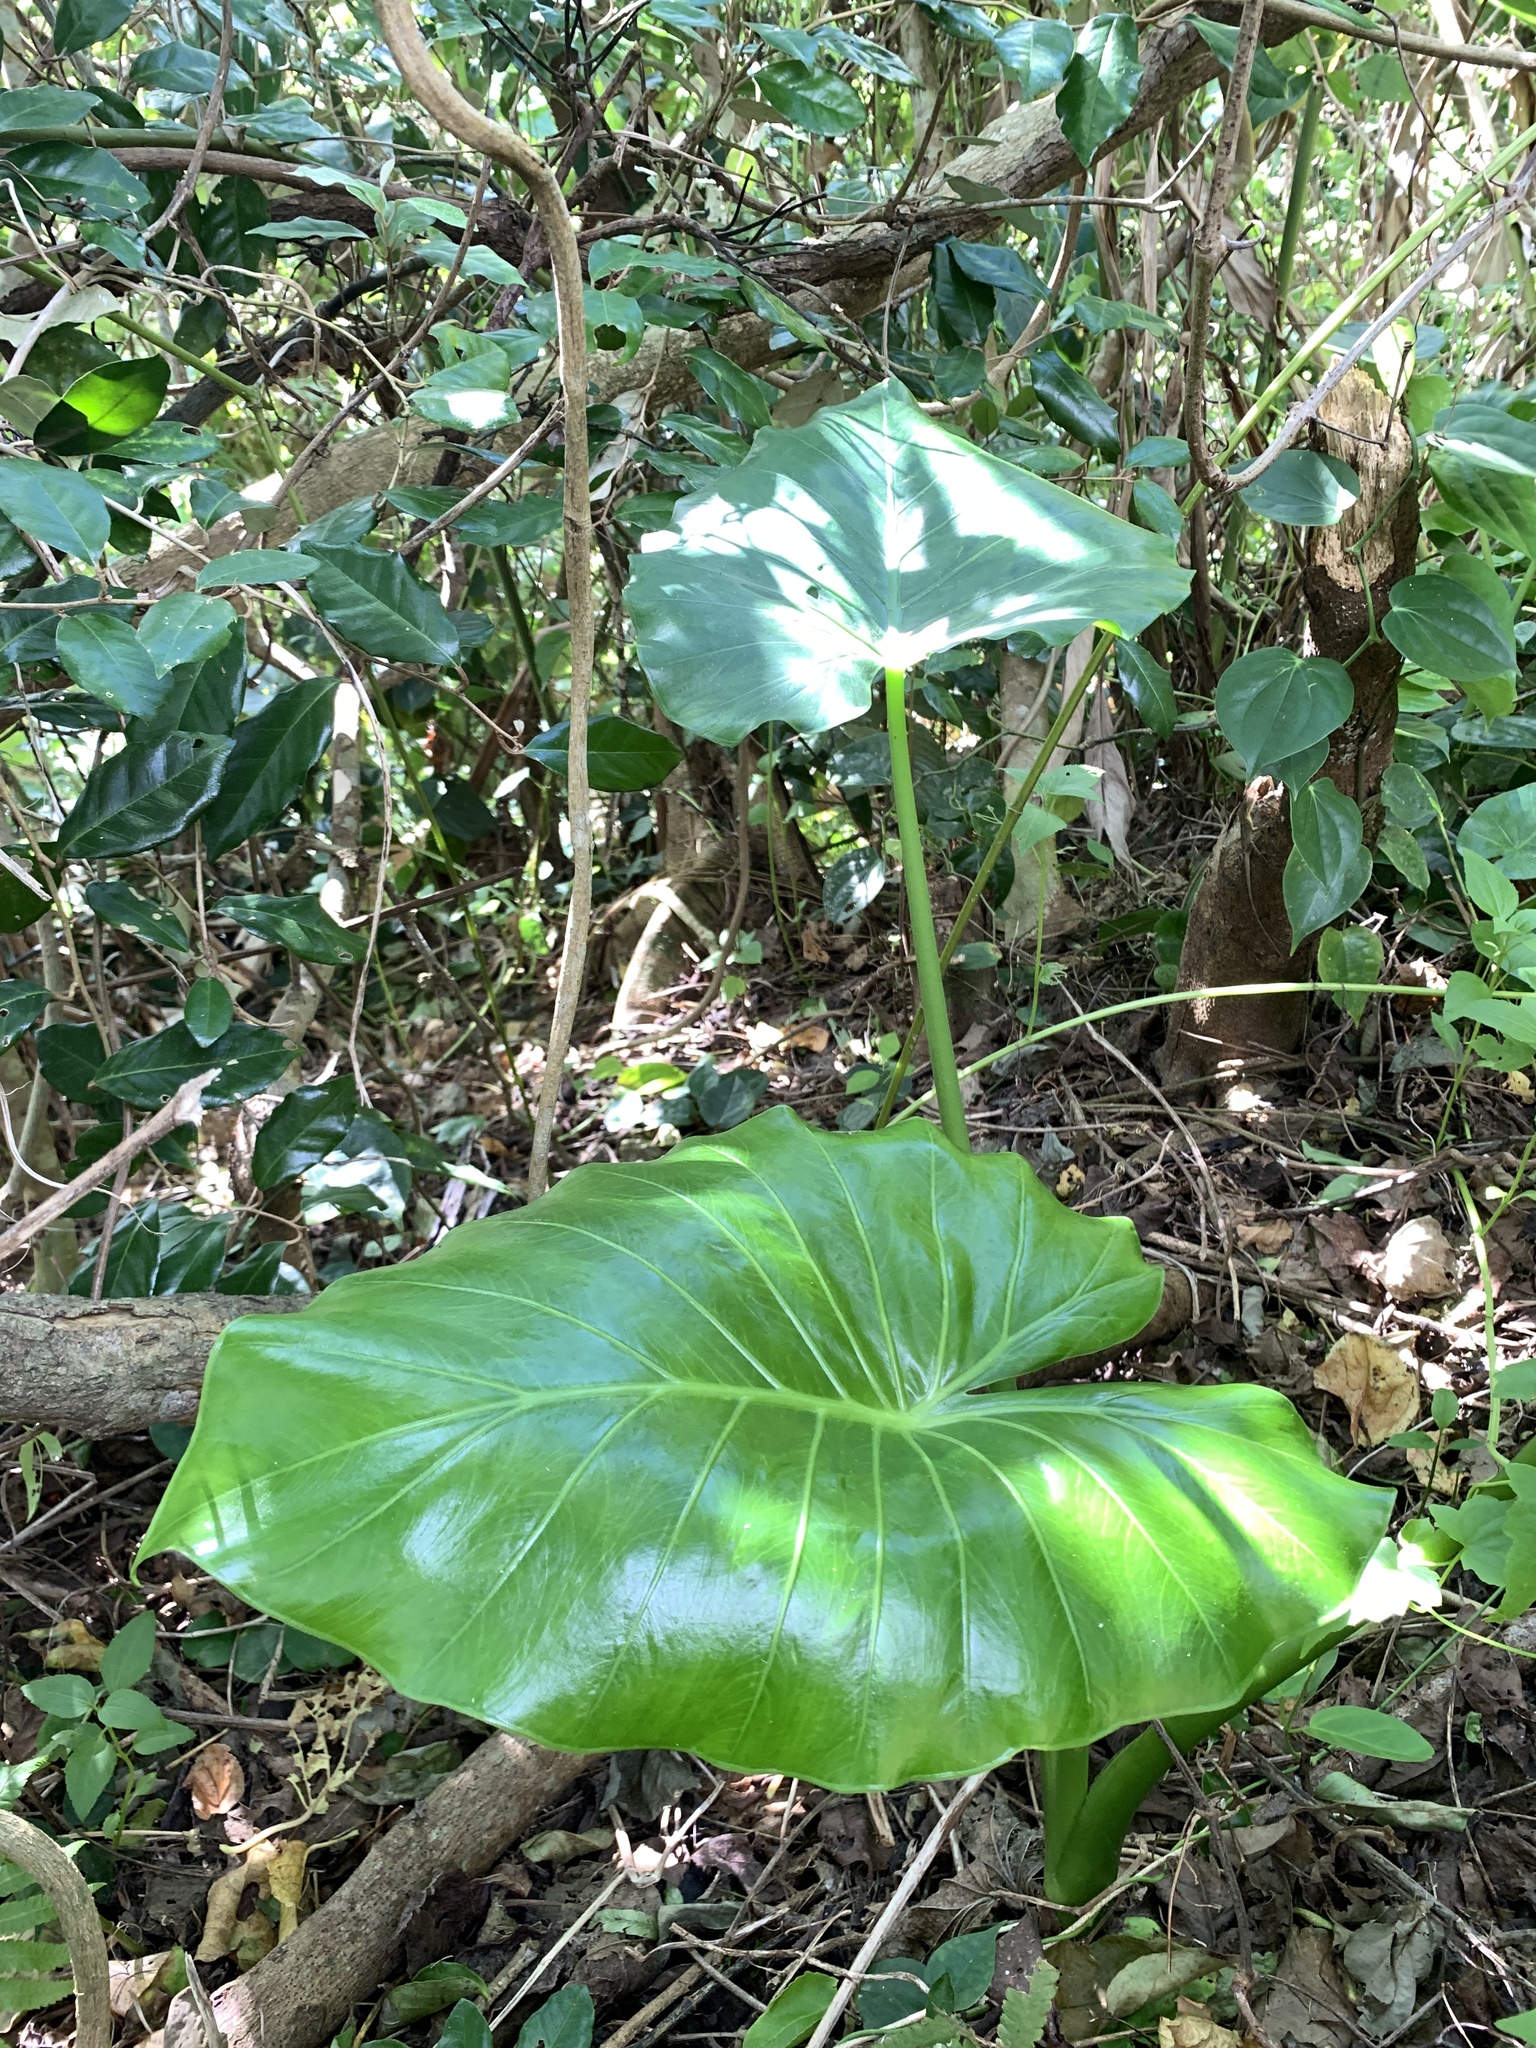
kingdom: Plantae
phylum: Tracheophyta
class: Liliopsida
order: Alismatales
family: Araceae
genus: Alocasia
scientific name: Alocasia odora
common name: Asian taro
